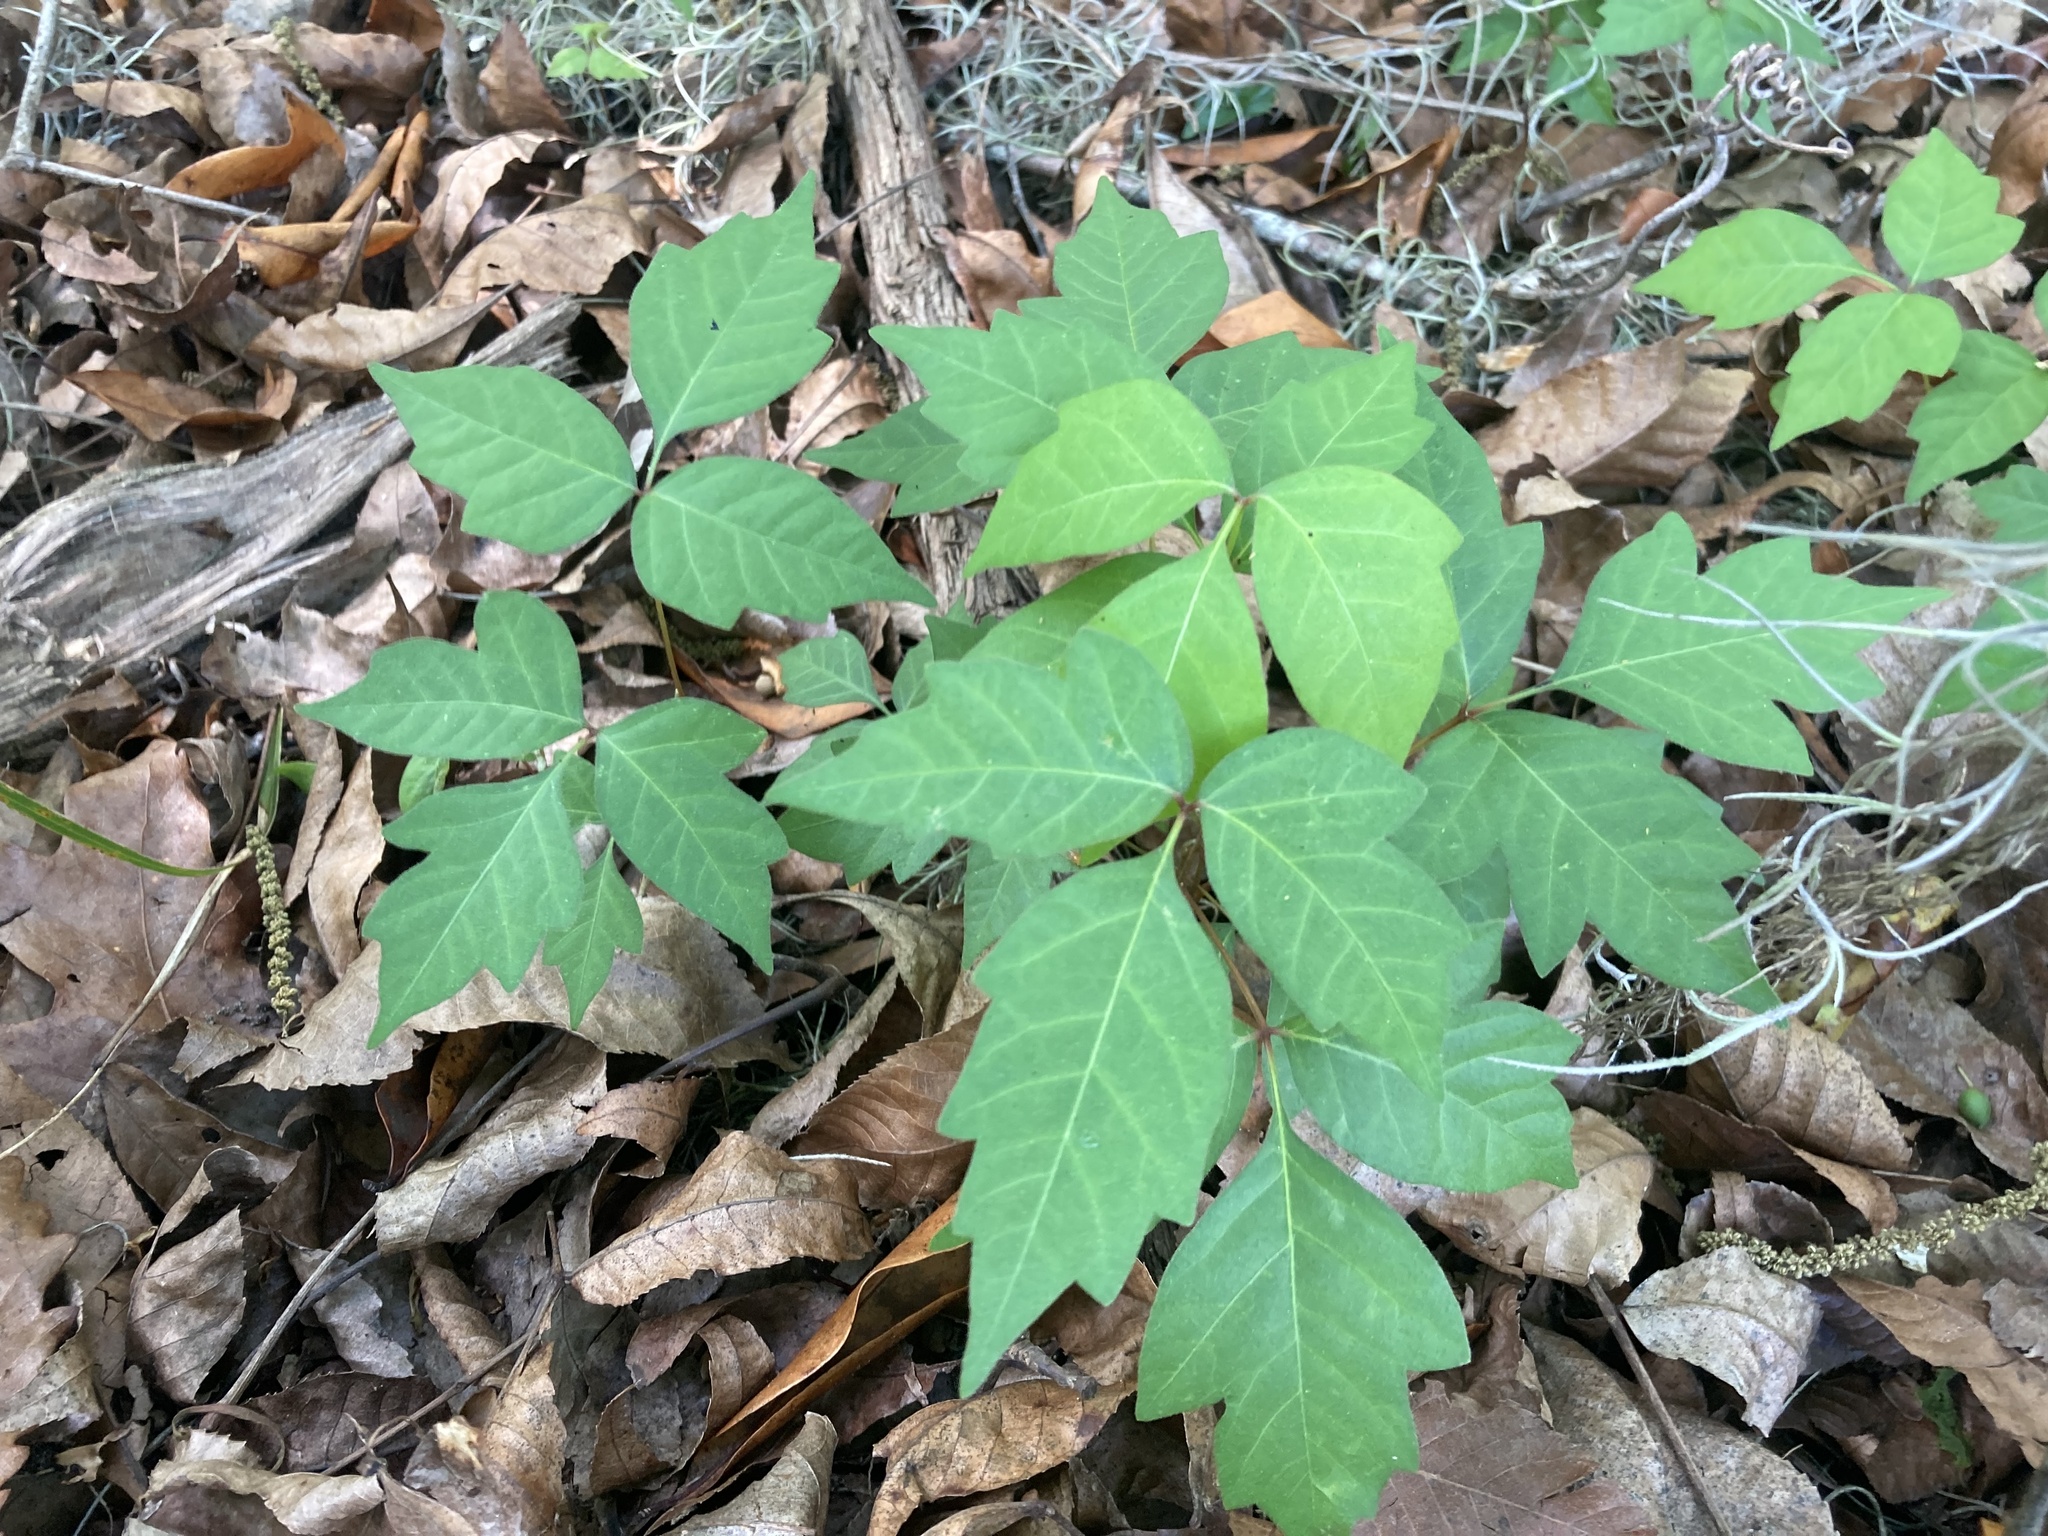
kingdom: Plantae
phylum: Tracheophyta
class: Magnoliopsida
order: Sapindales
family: Anacardiaceae
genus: Toxicodendron
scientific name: Toxicodendron radicans
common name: Poison ivy
